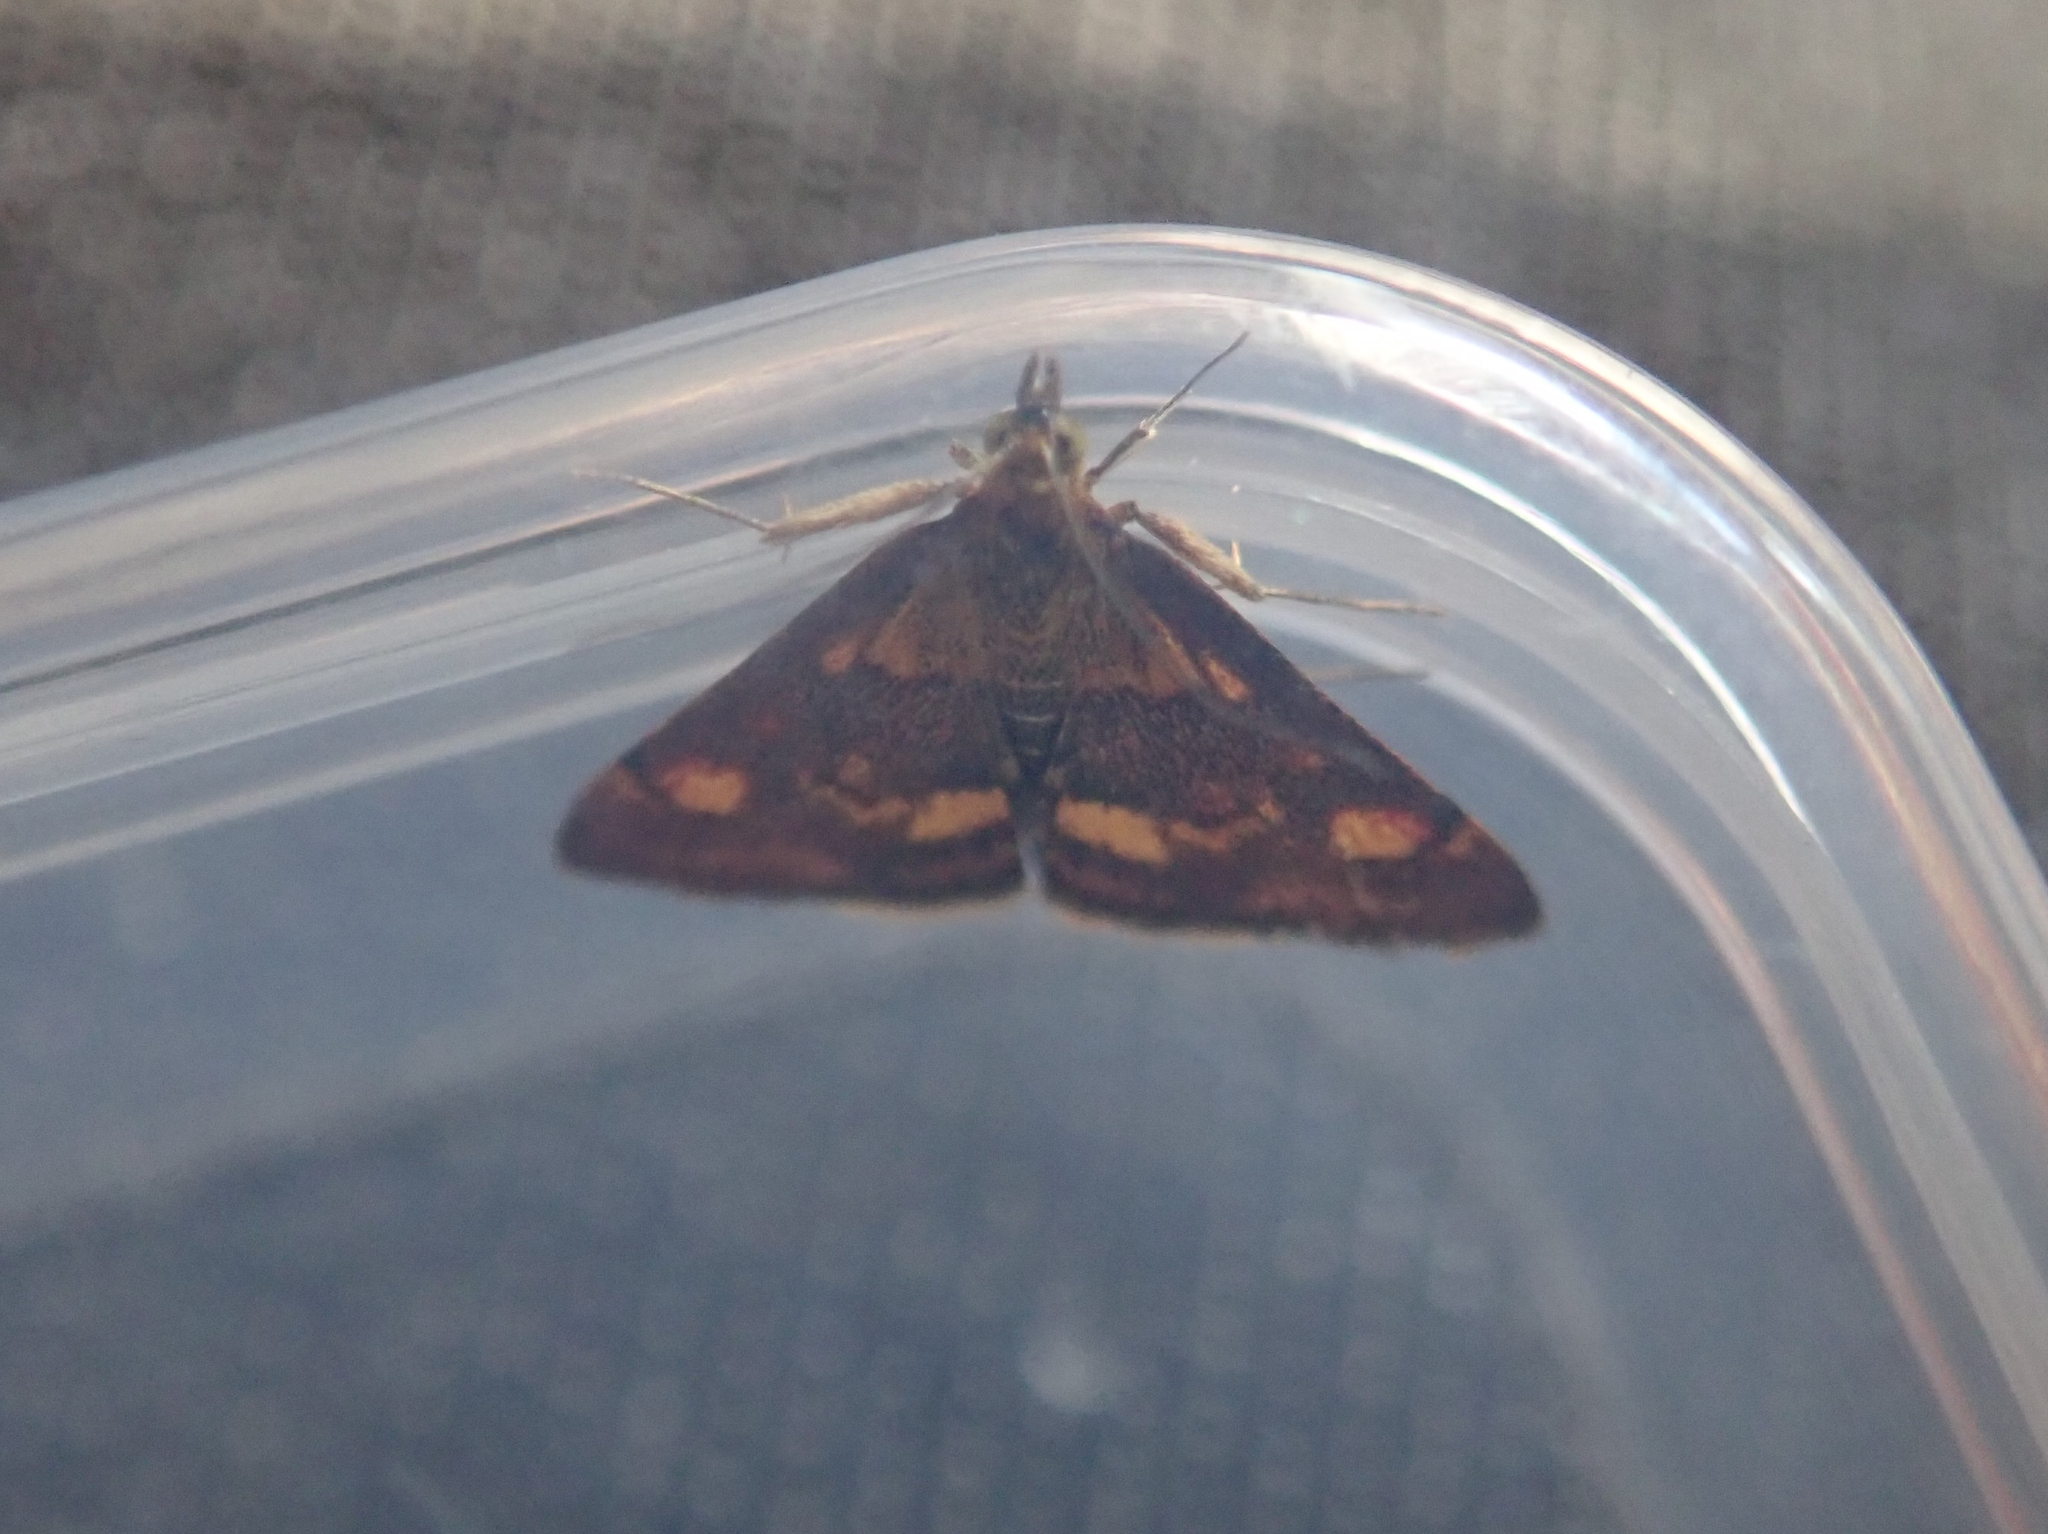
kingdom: Animalia
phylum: Arthropoda
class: Insecta
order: Lepidoptera
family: Crambidae
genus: Pyrausta
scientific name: Pyrausta purpuralis
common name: Common purple & gold
